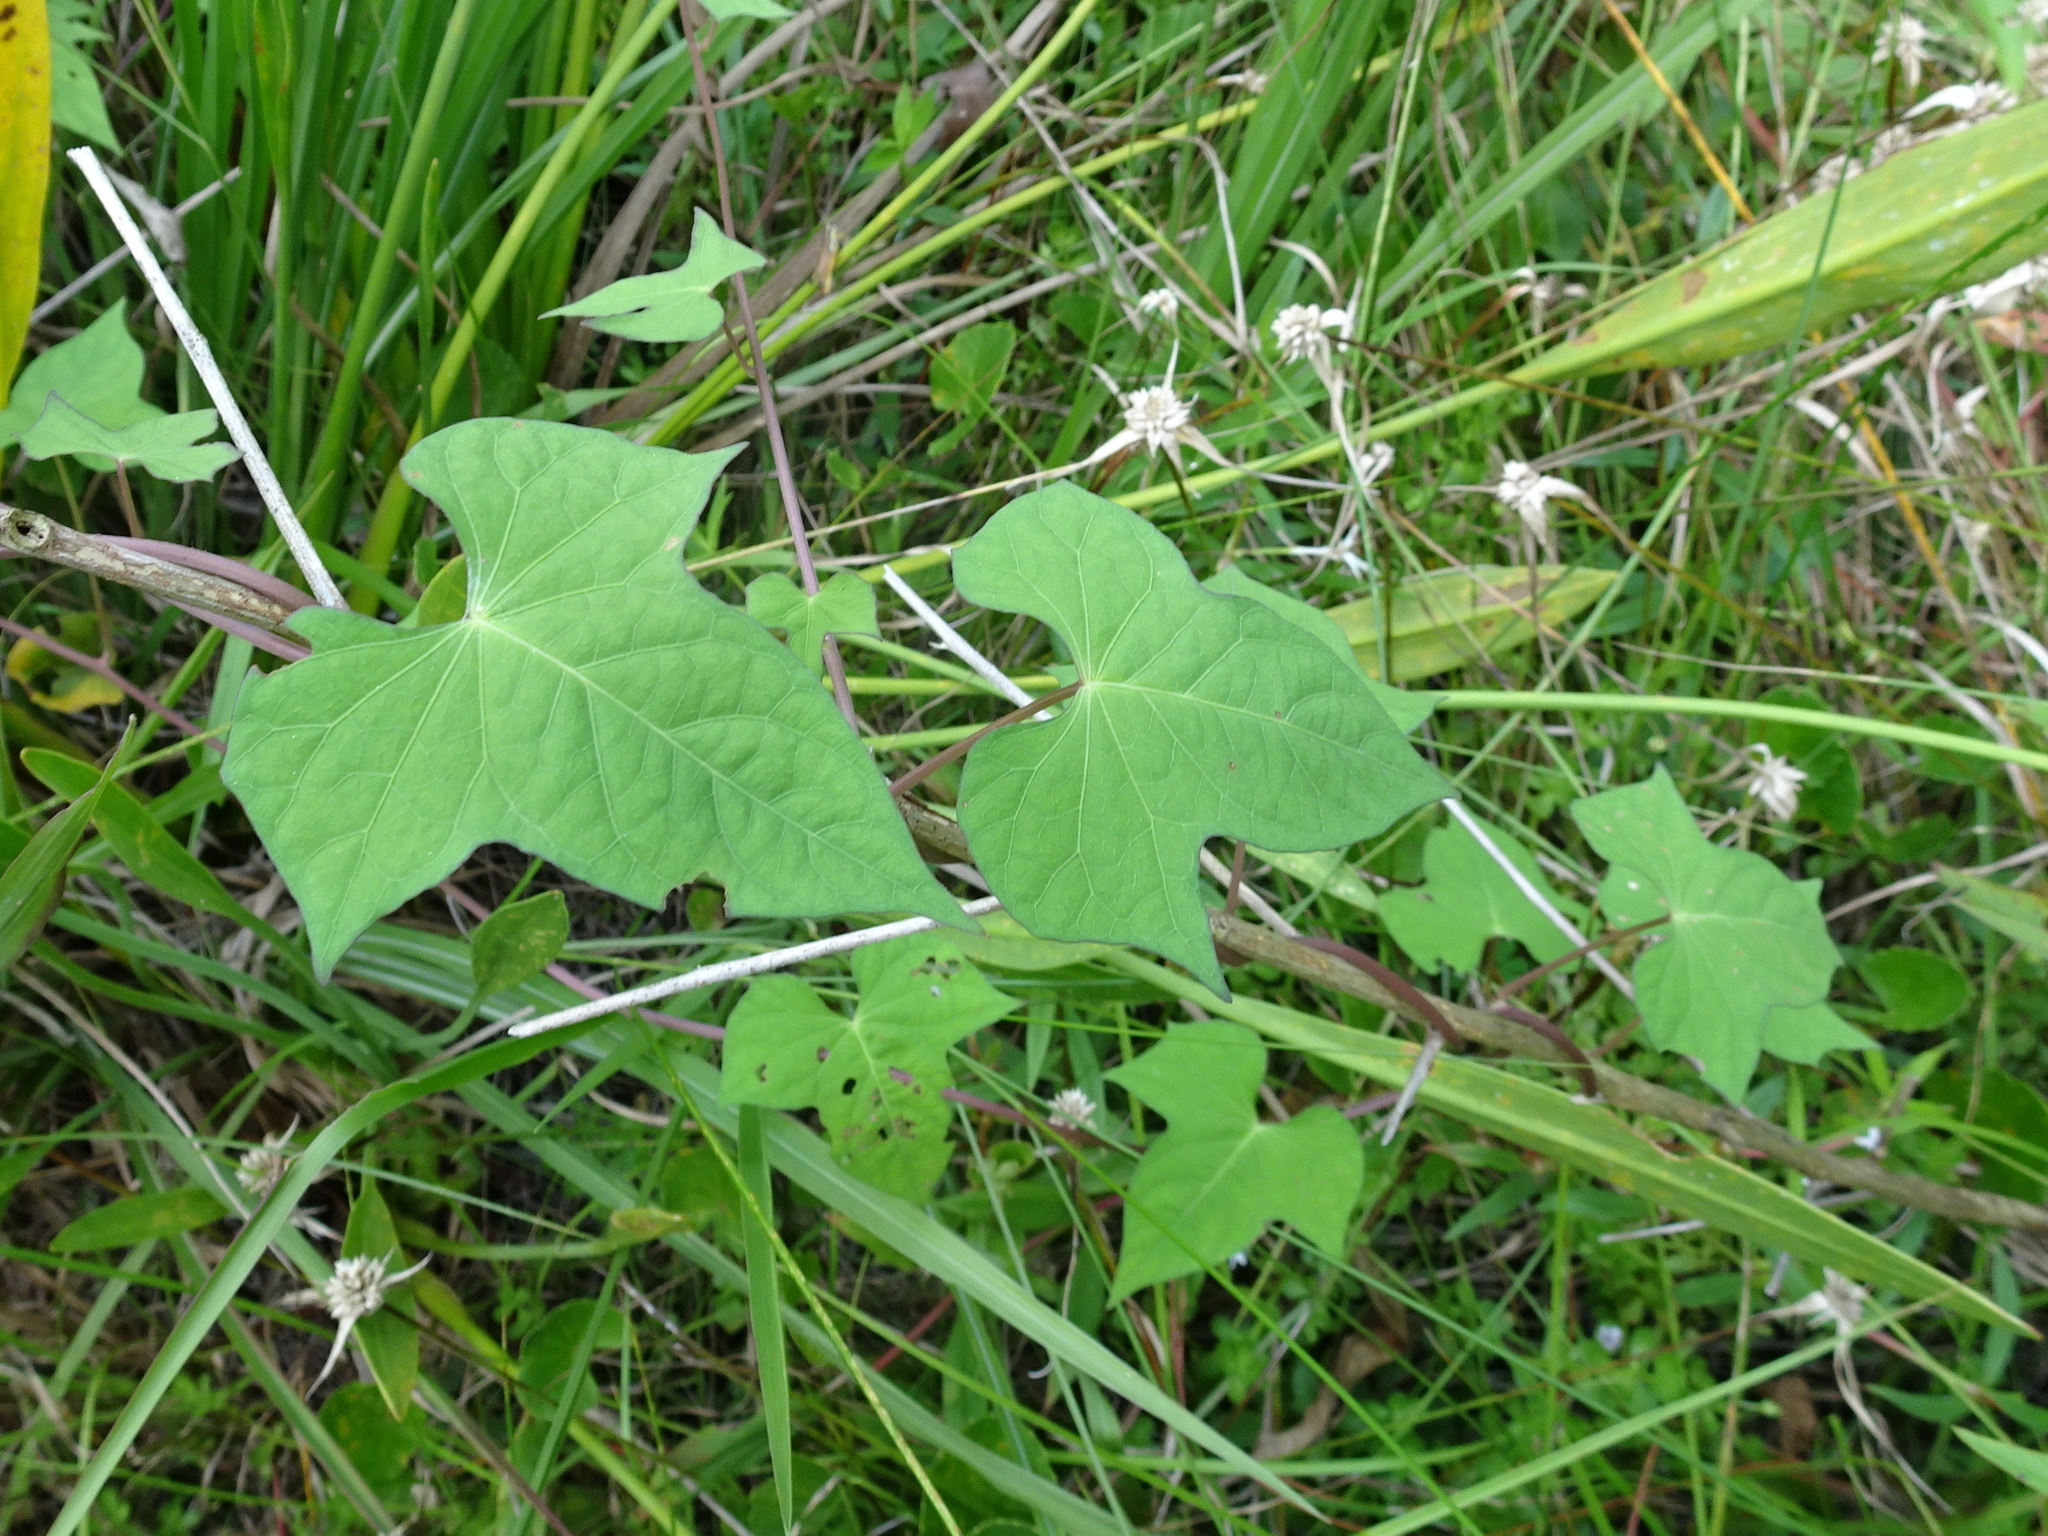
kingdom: Plantae
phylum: Tracheophyta
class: Magnoliopsida
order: Asterales
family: Asteraceae
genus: Mikania
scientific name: Mikania scandens
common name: Climbing hempvine
